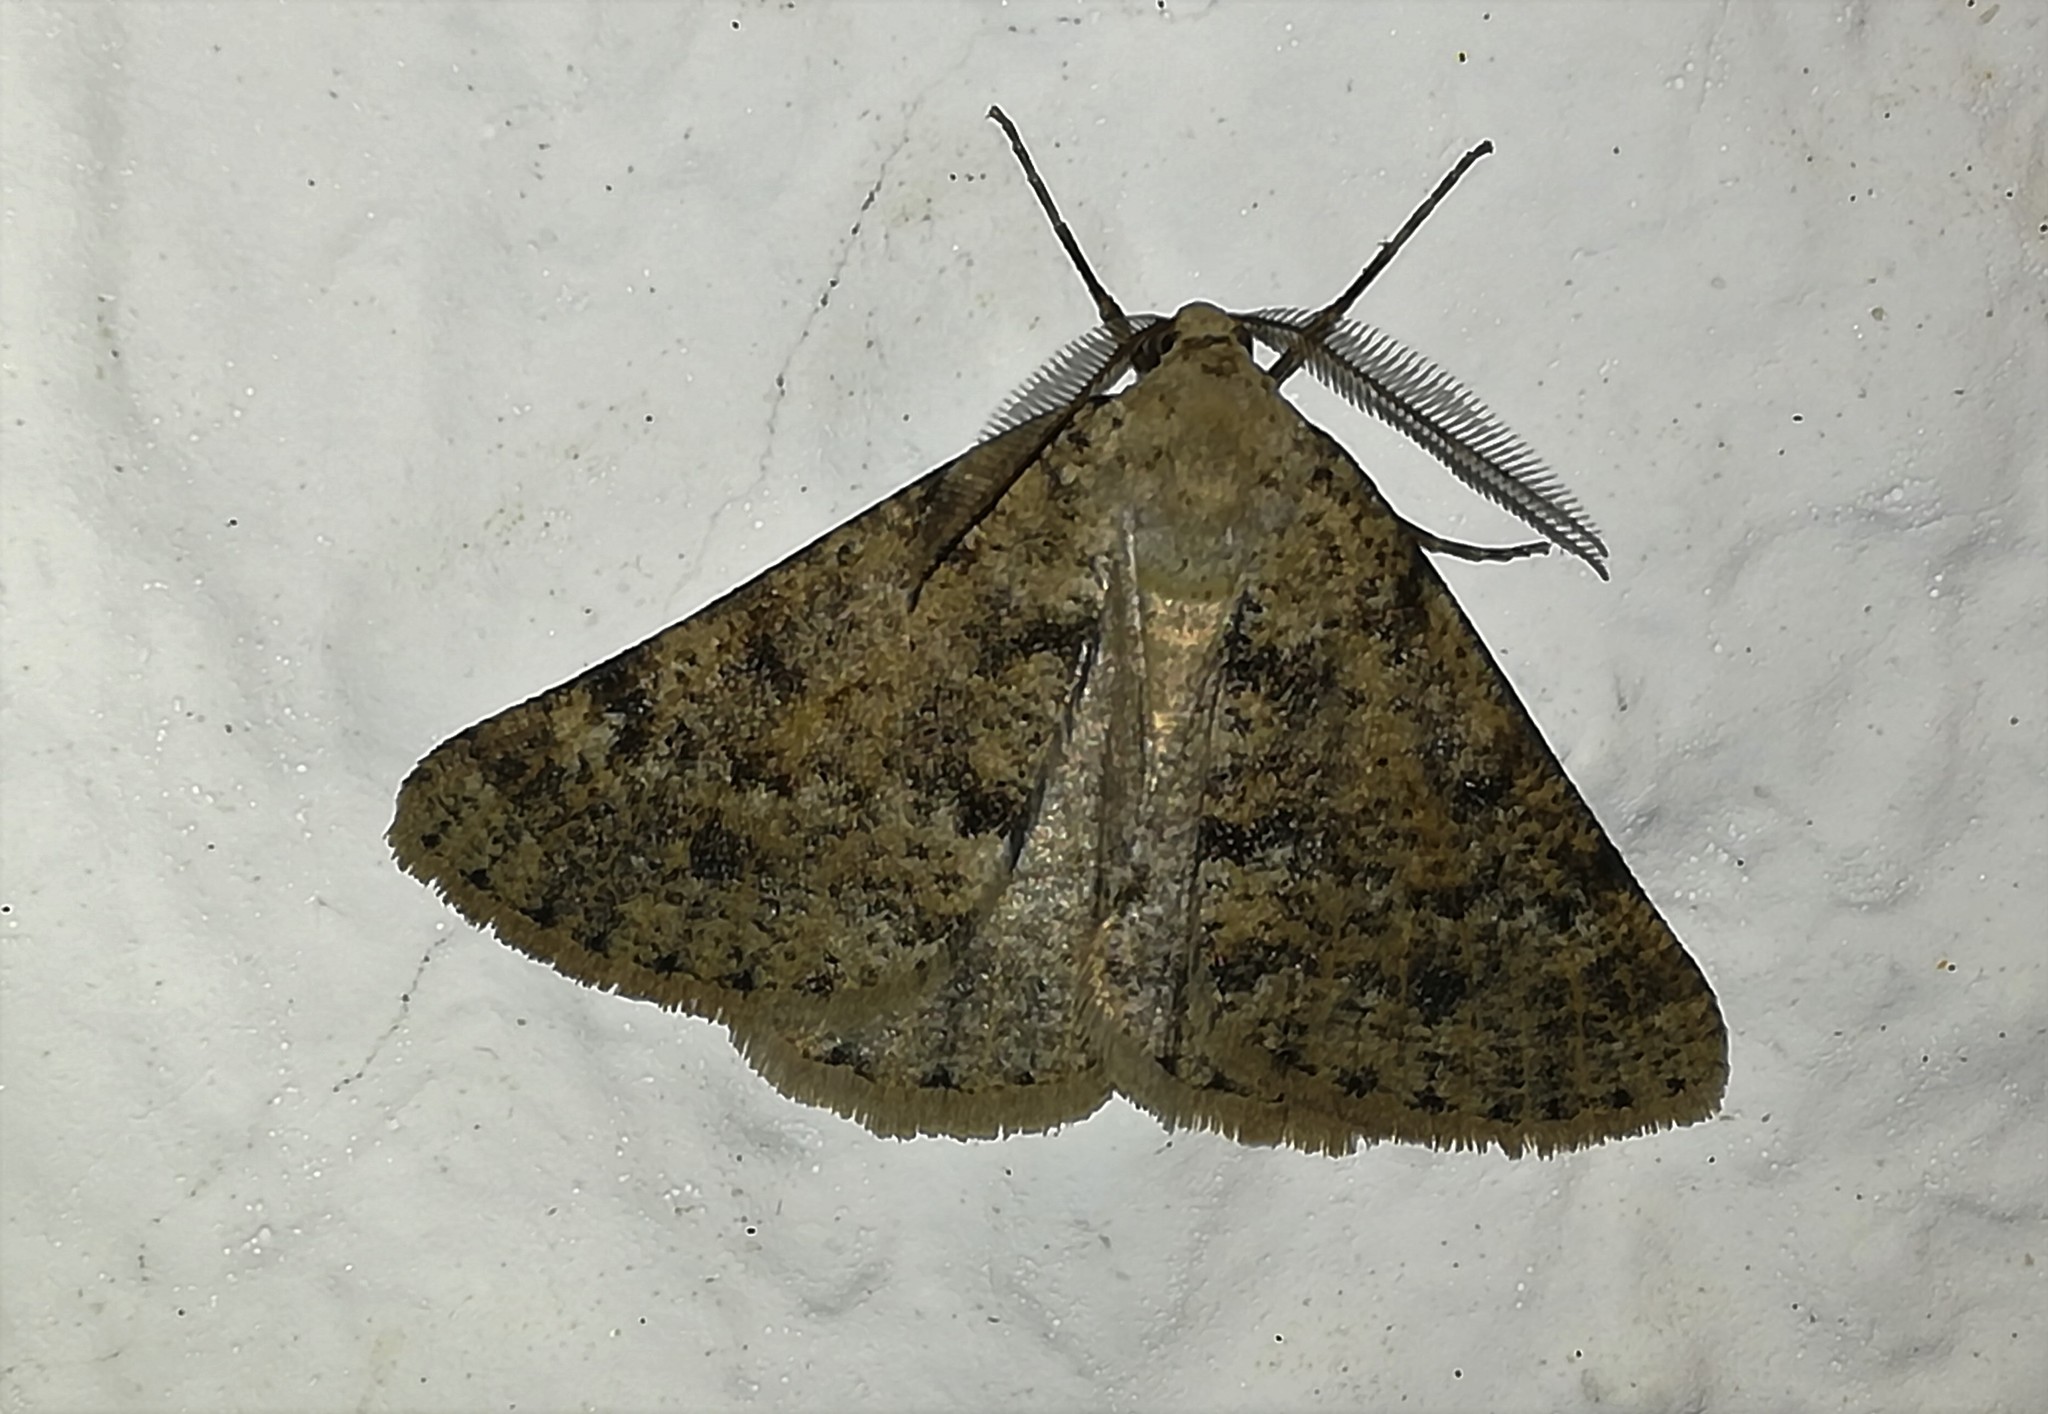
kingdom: Animalia
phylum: Arthropoda
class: Insecta
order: Lepidoptera
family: Geometridae
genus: Isturgia
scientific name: Isturgia miniosaria
